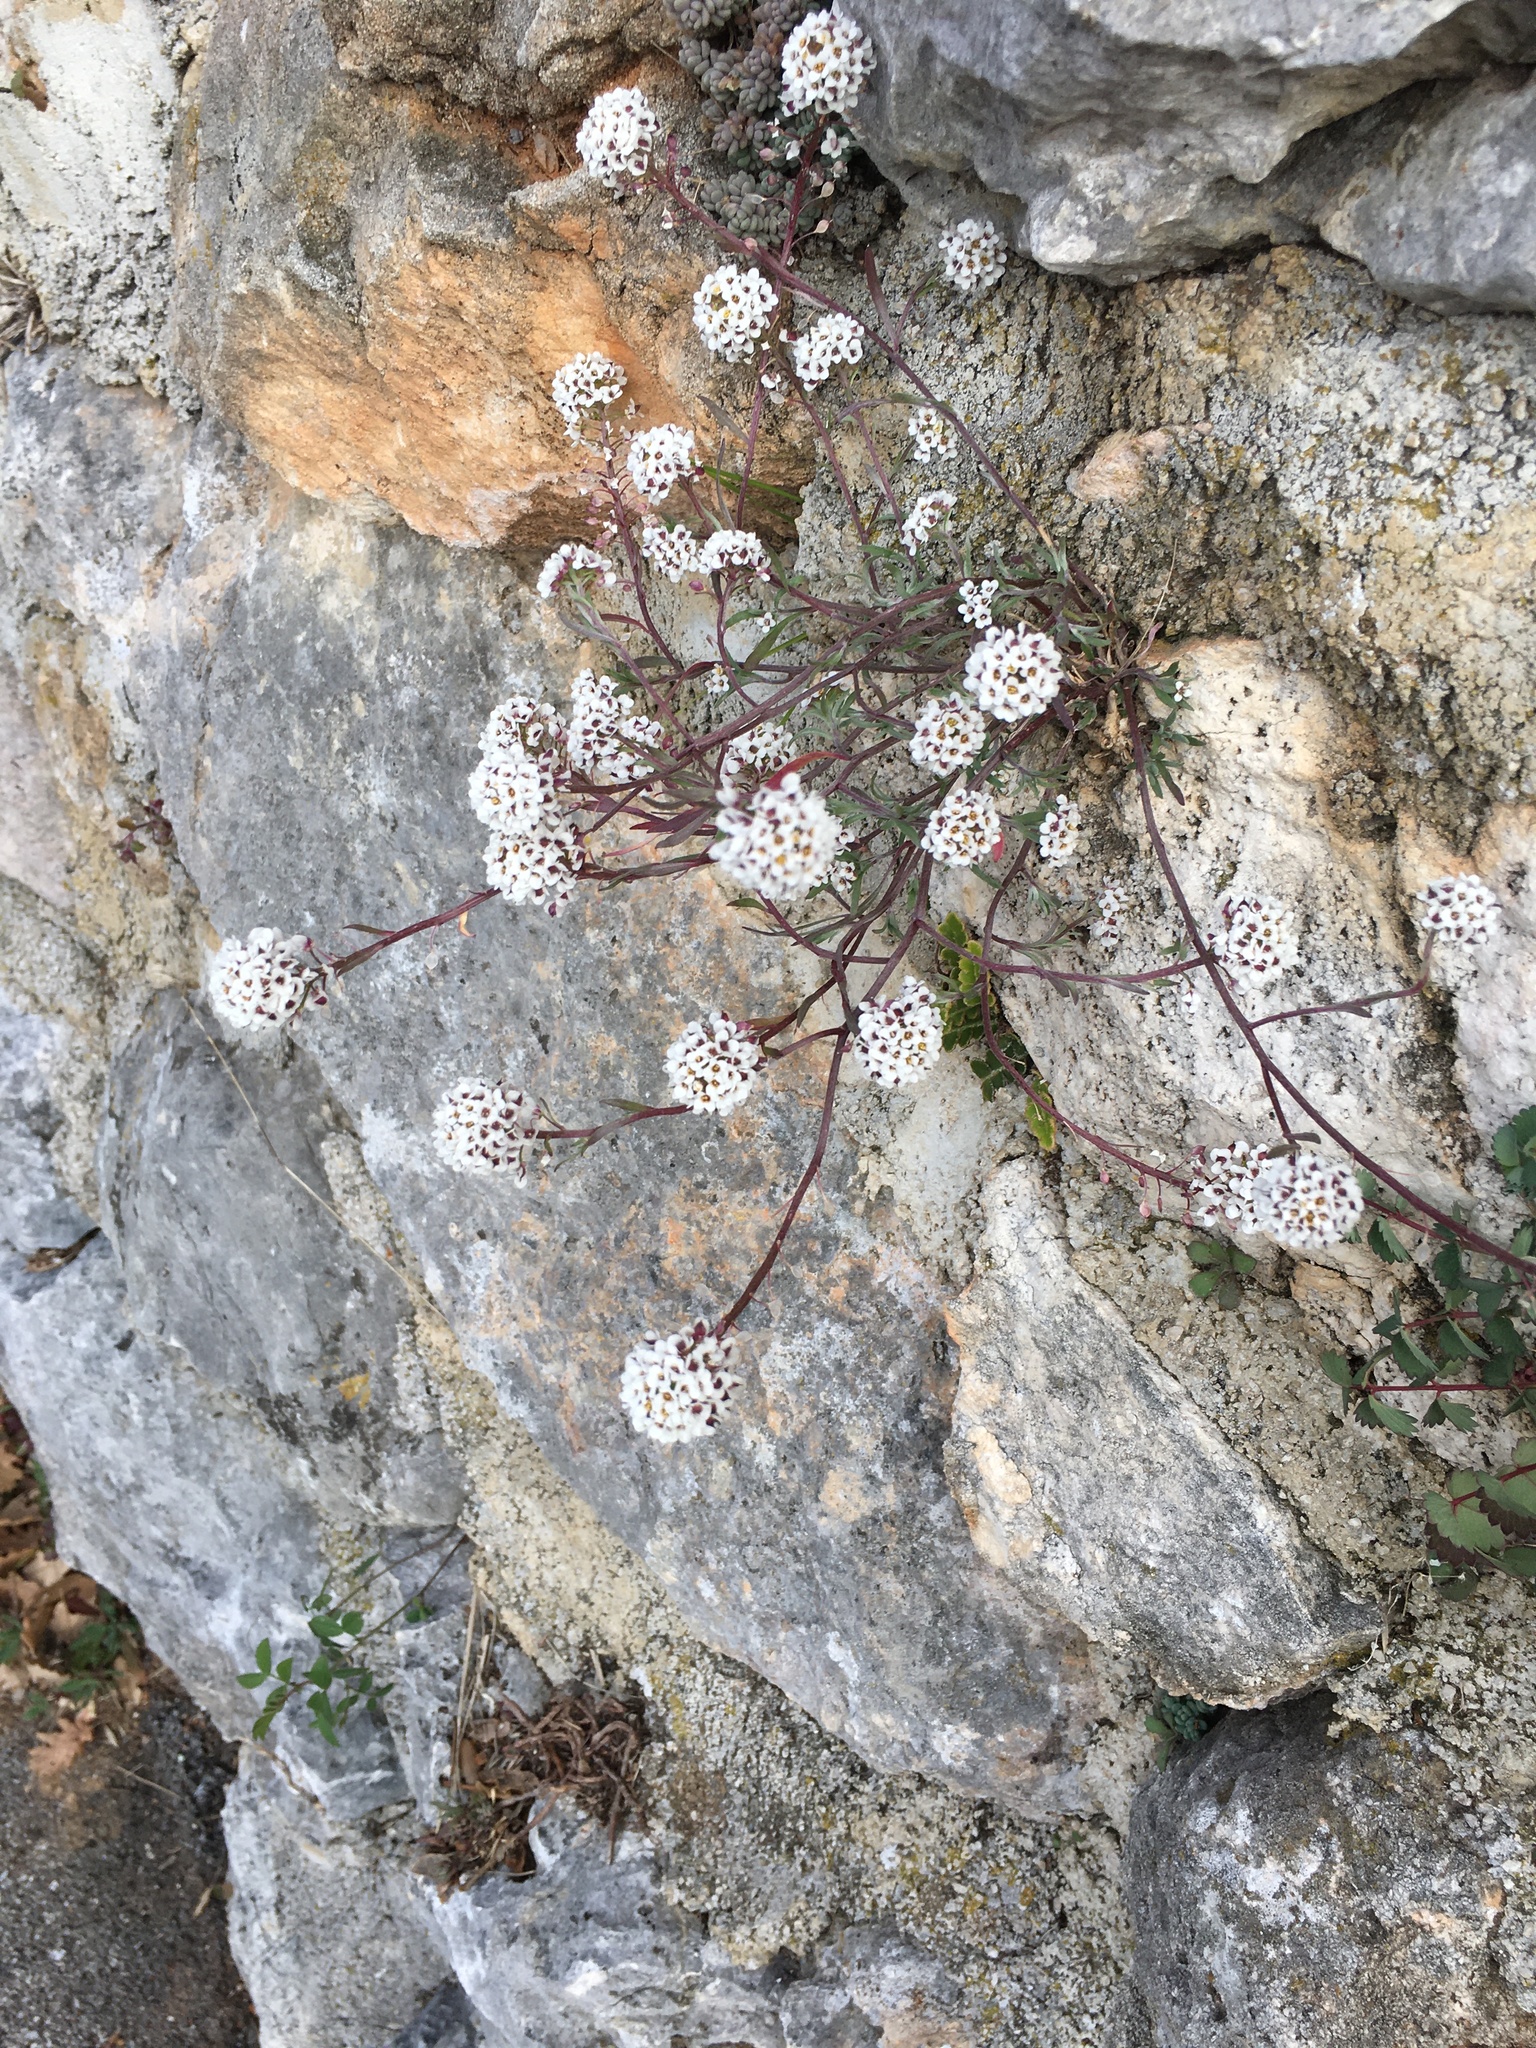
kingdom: Plantae
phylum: Tracheophyta
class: Magnoliopsida
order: Brassicales
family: Brassicaceae
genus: Lobularia
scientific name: Lobularia maritima
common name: Sweet alison
